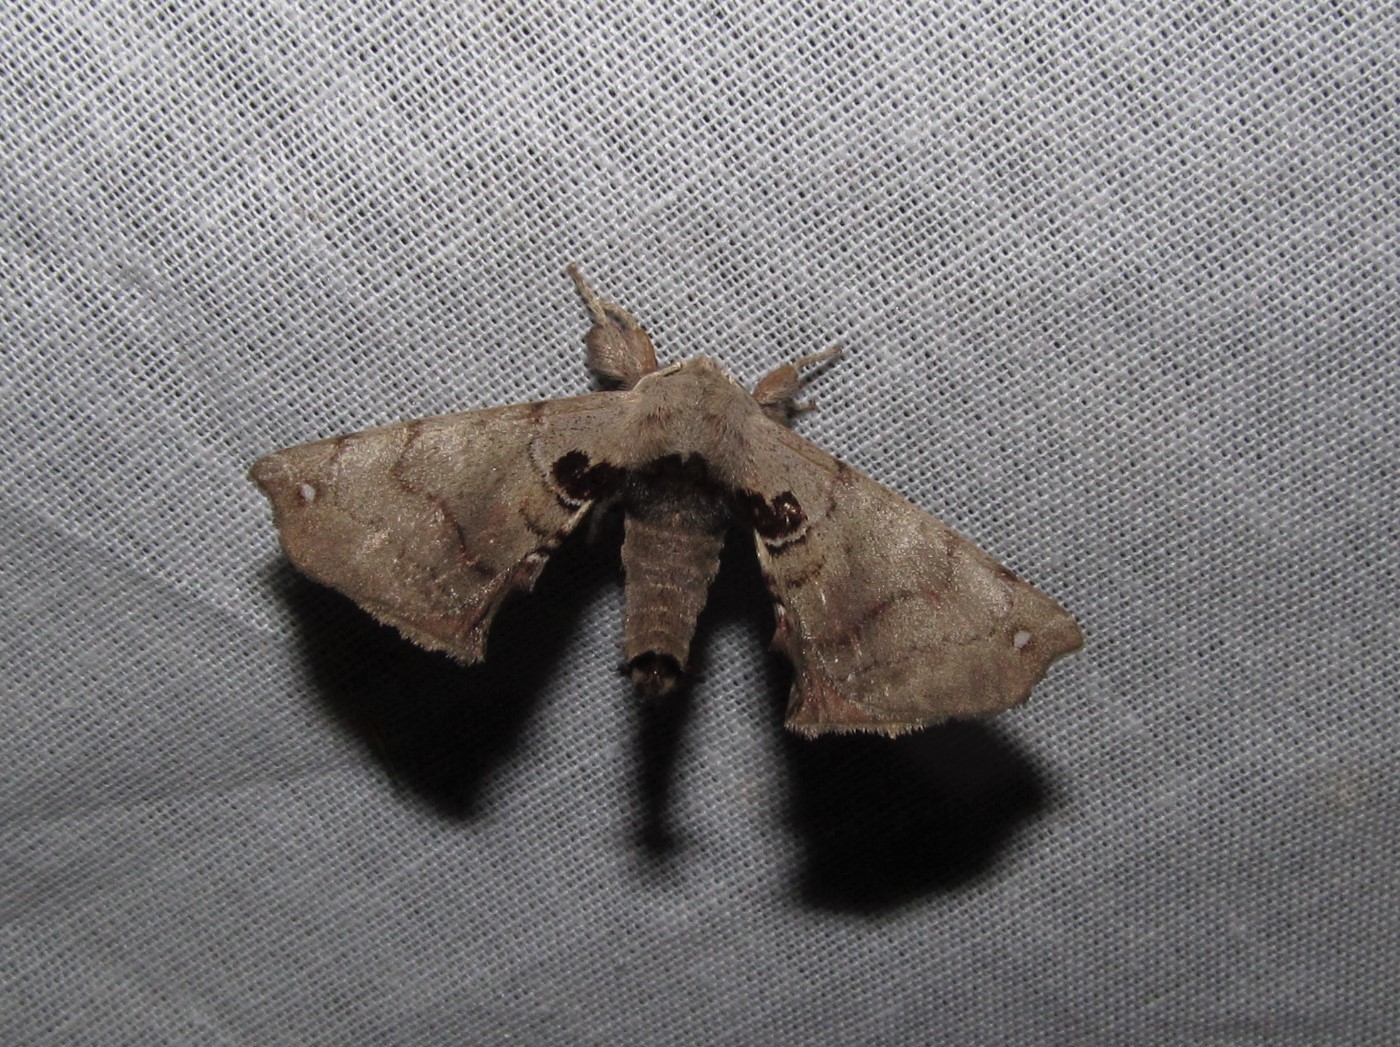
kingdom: Animalia
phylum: Arthropoda
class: Insecta
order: Lepidoptera
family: Apatelodidae
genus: Hygrochroa
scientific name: Hygrochroa Apatelodes torrefacta
